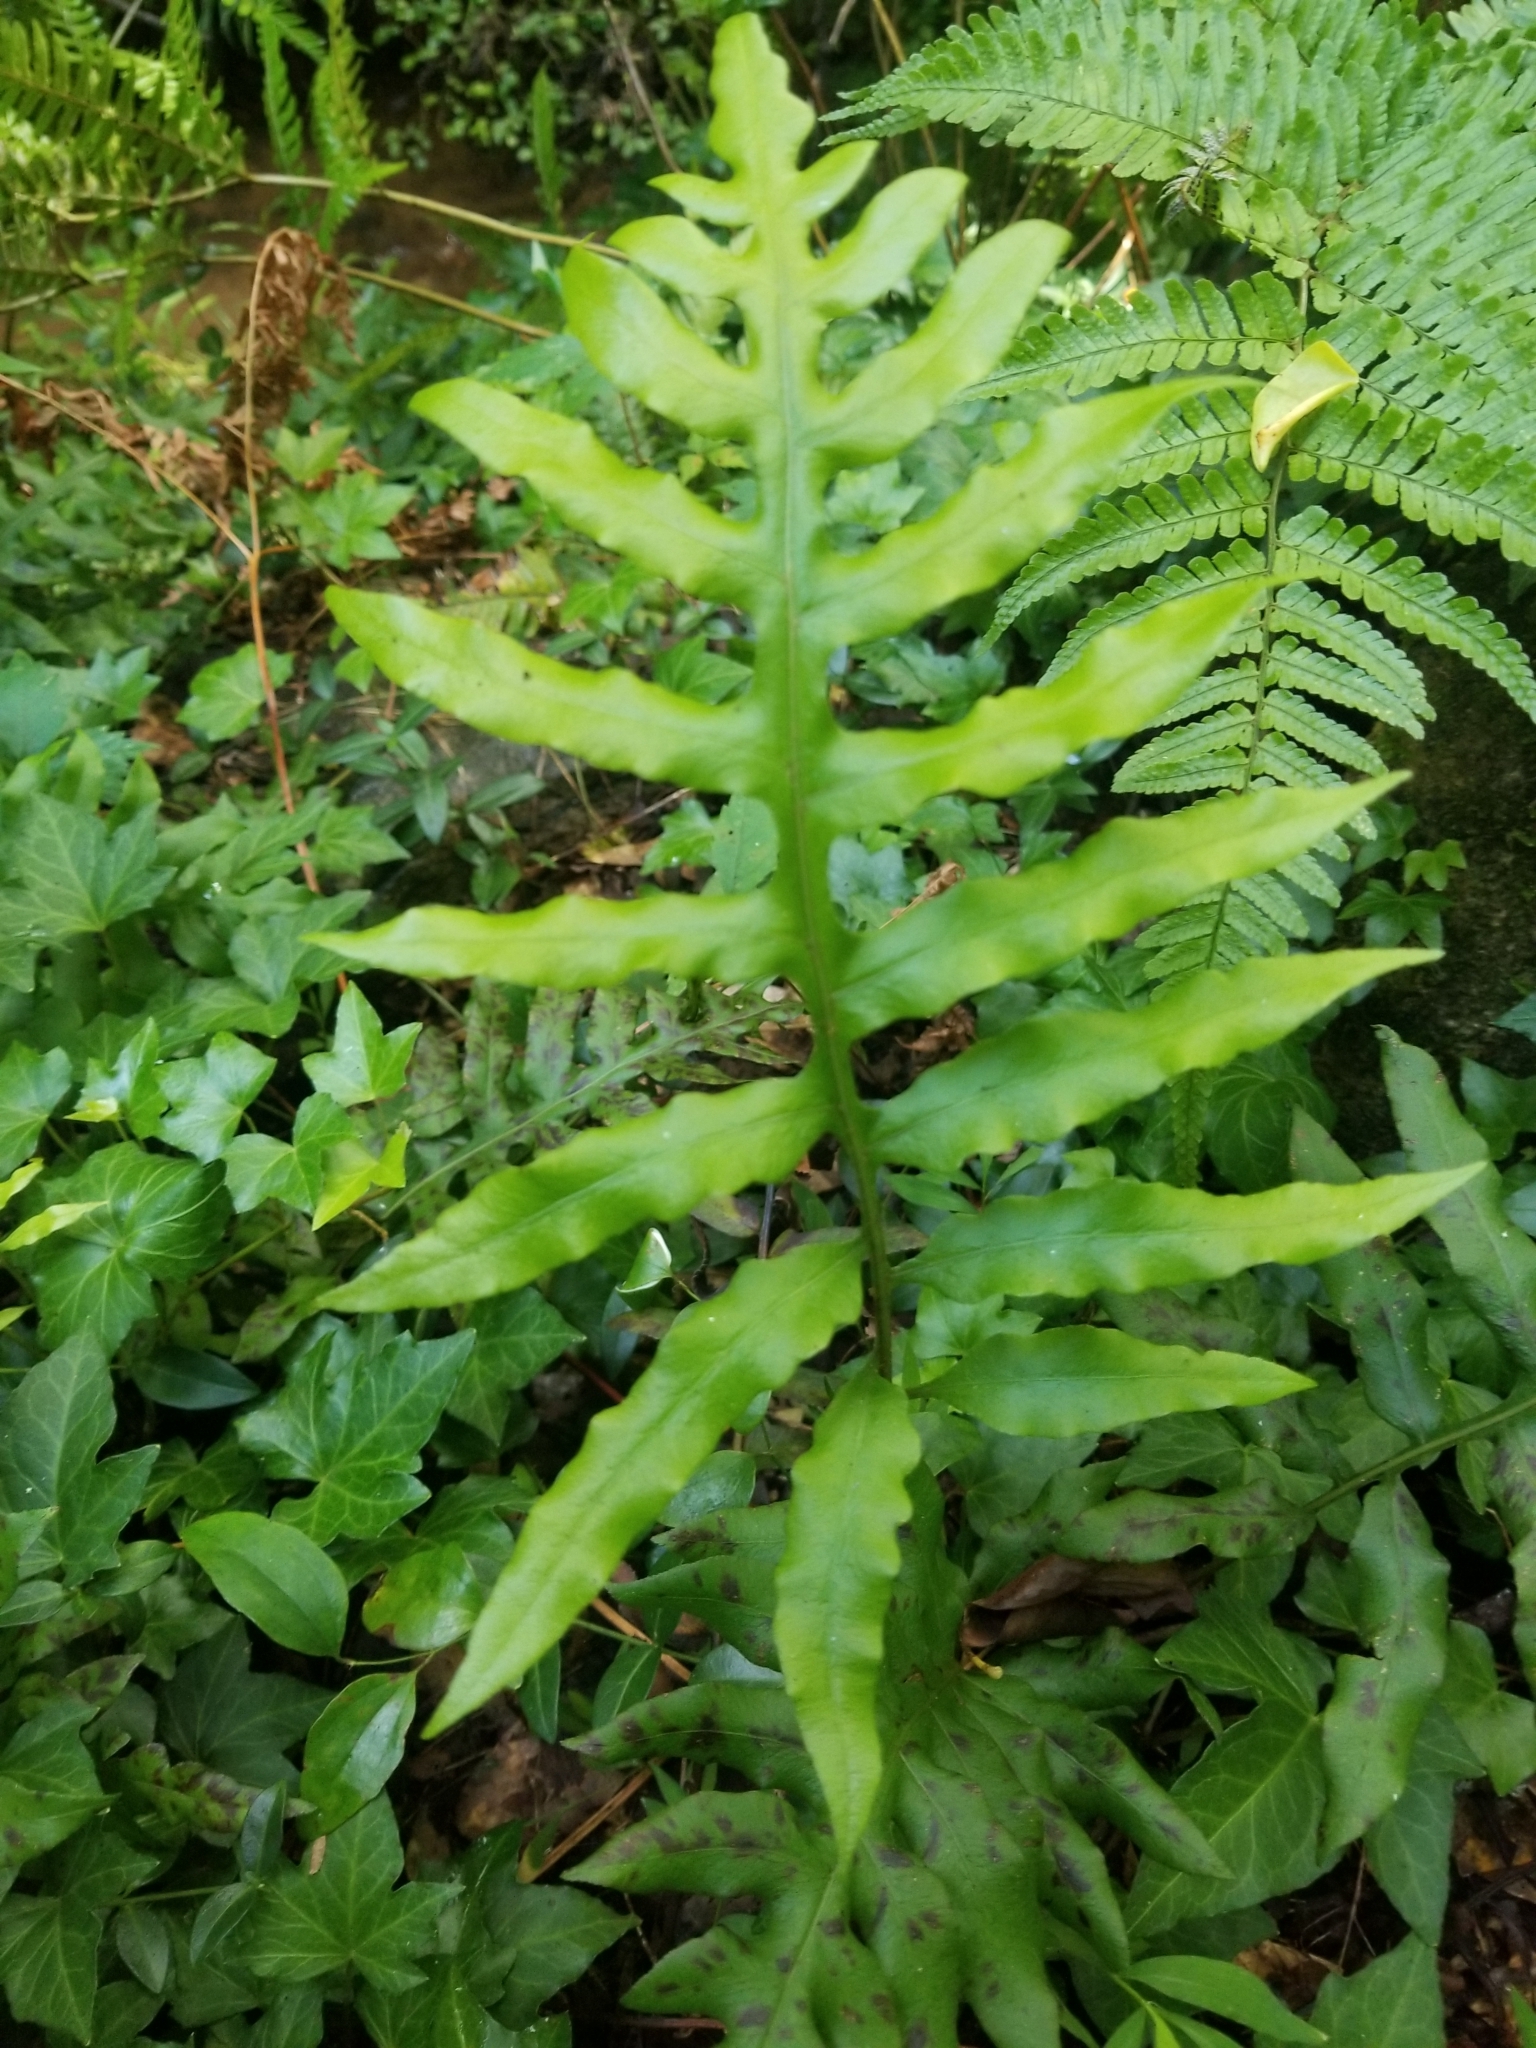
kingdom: Plantae
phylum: Tracheophyta
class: Polypodiopsida
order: Polypodiales
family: Blechnaceae
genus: Lorinseria
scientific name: Lorinseria areolata
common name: Dwarf chain fern
